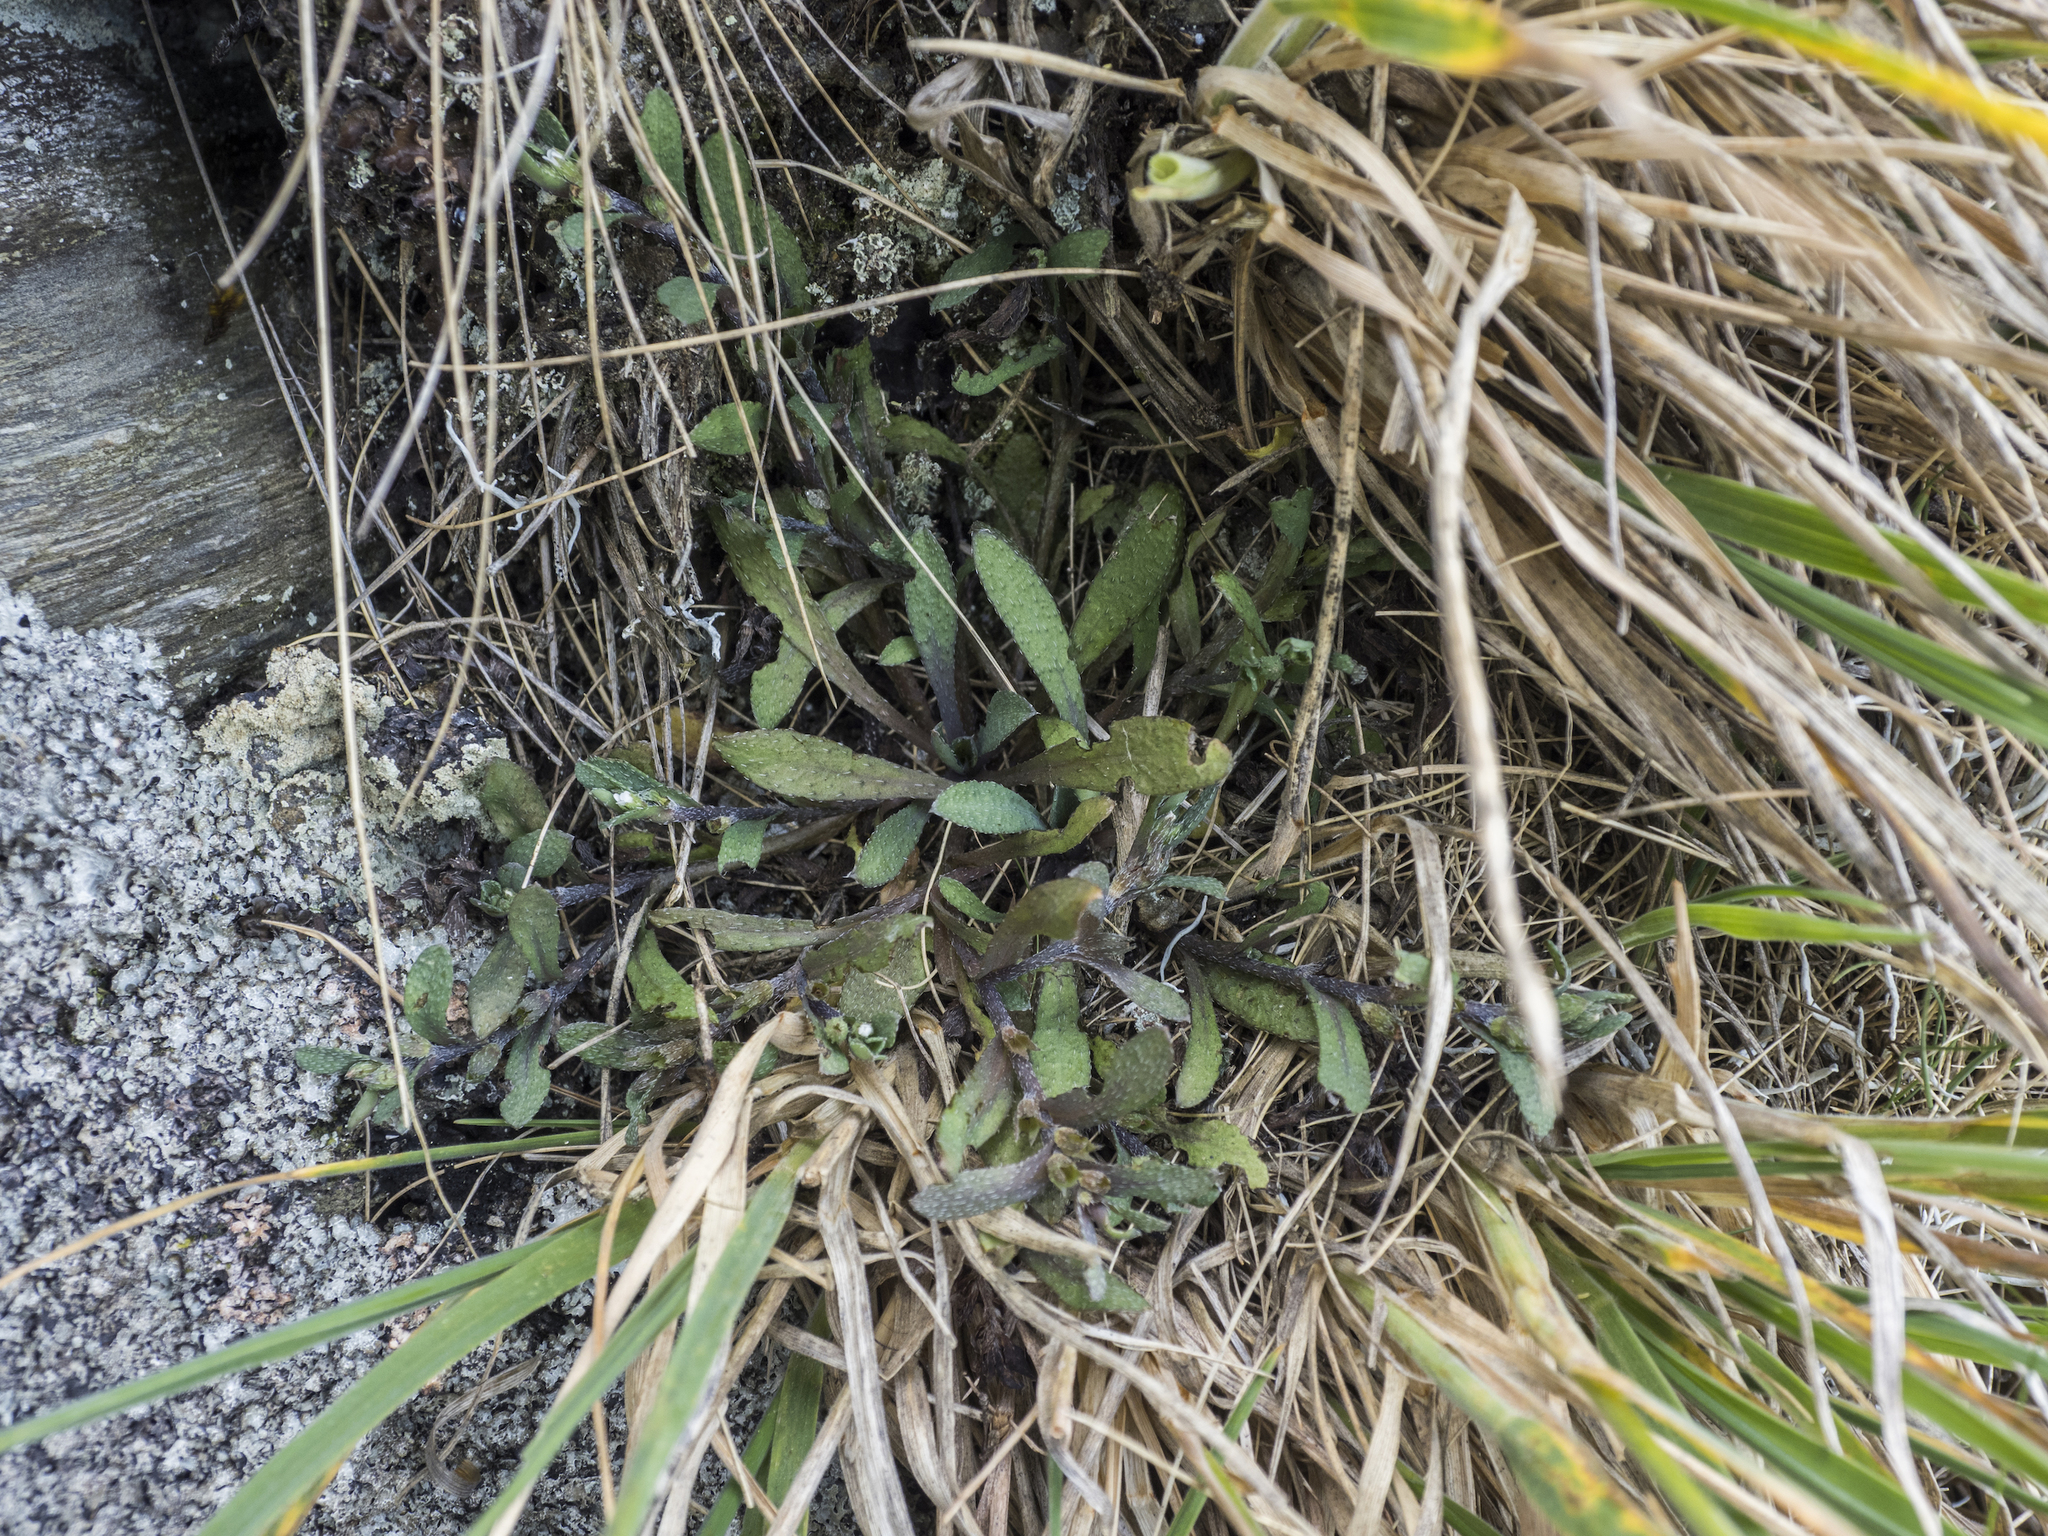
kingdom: Plantae
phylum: Tracheophyta
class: Magnoliopsida
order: Boraginales
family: Boraginaceae
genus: Myosotis
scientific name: Myosotis glauca
